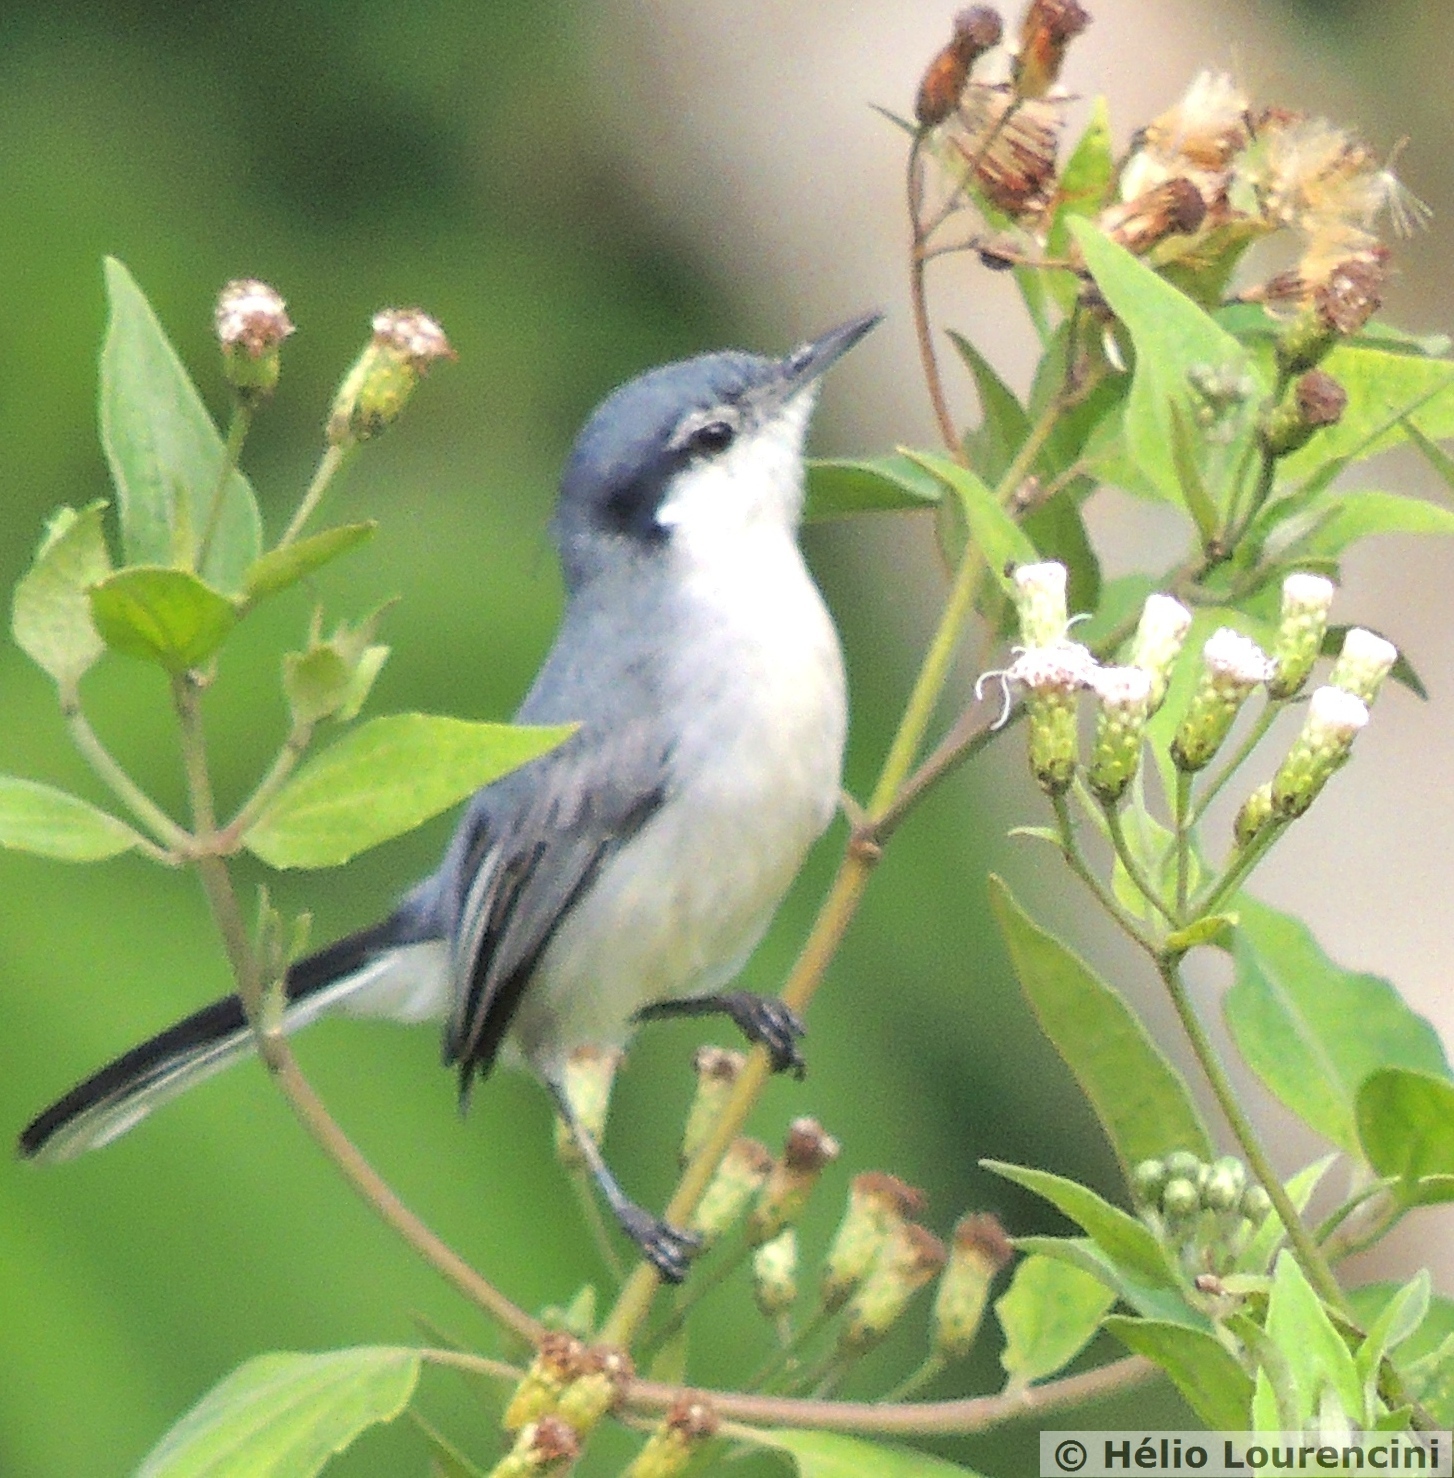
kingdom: Animalia
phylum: Chordata
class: Aves
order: Passeriformes
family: Polioptilidae
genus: Polioptila
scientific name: Polioptila plumbea
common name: Tropical gnatcatcher
